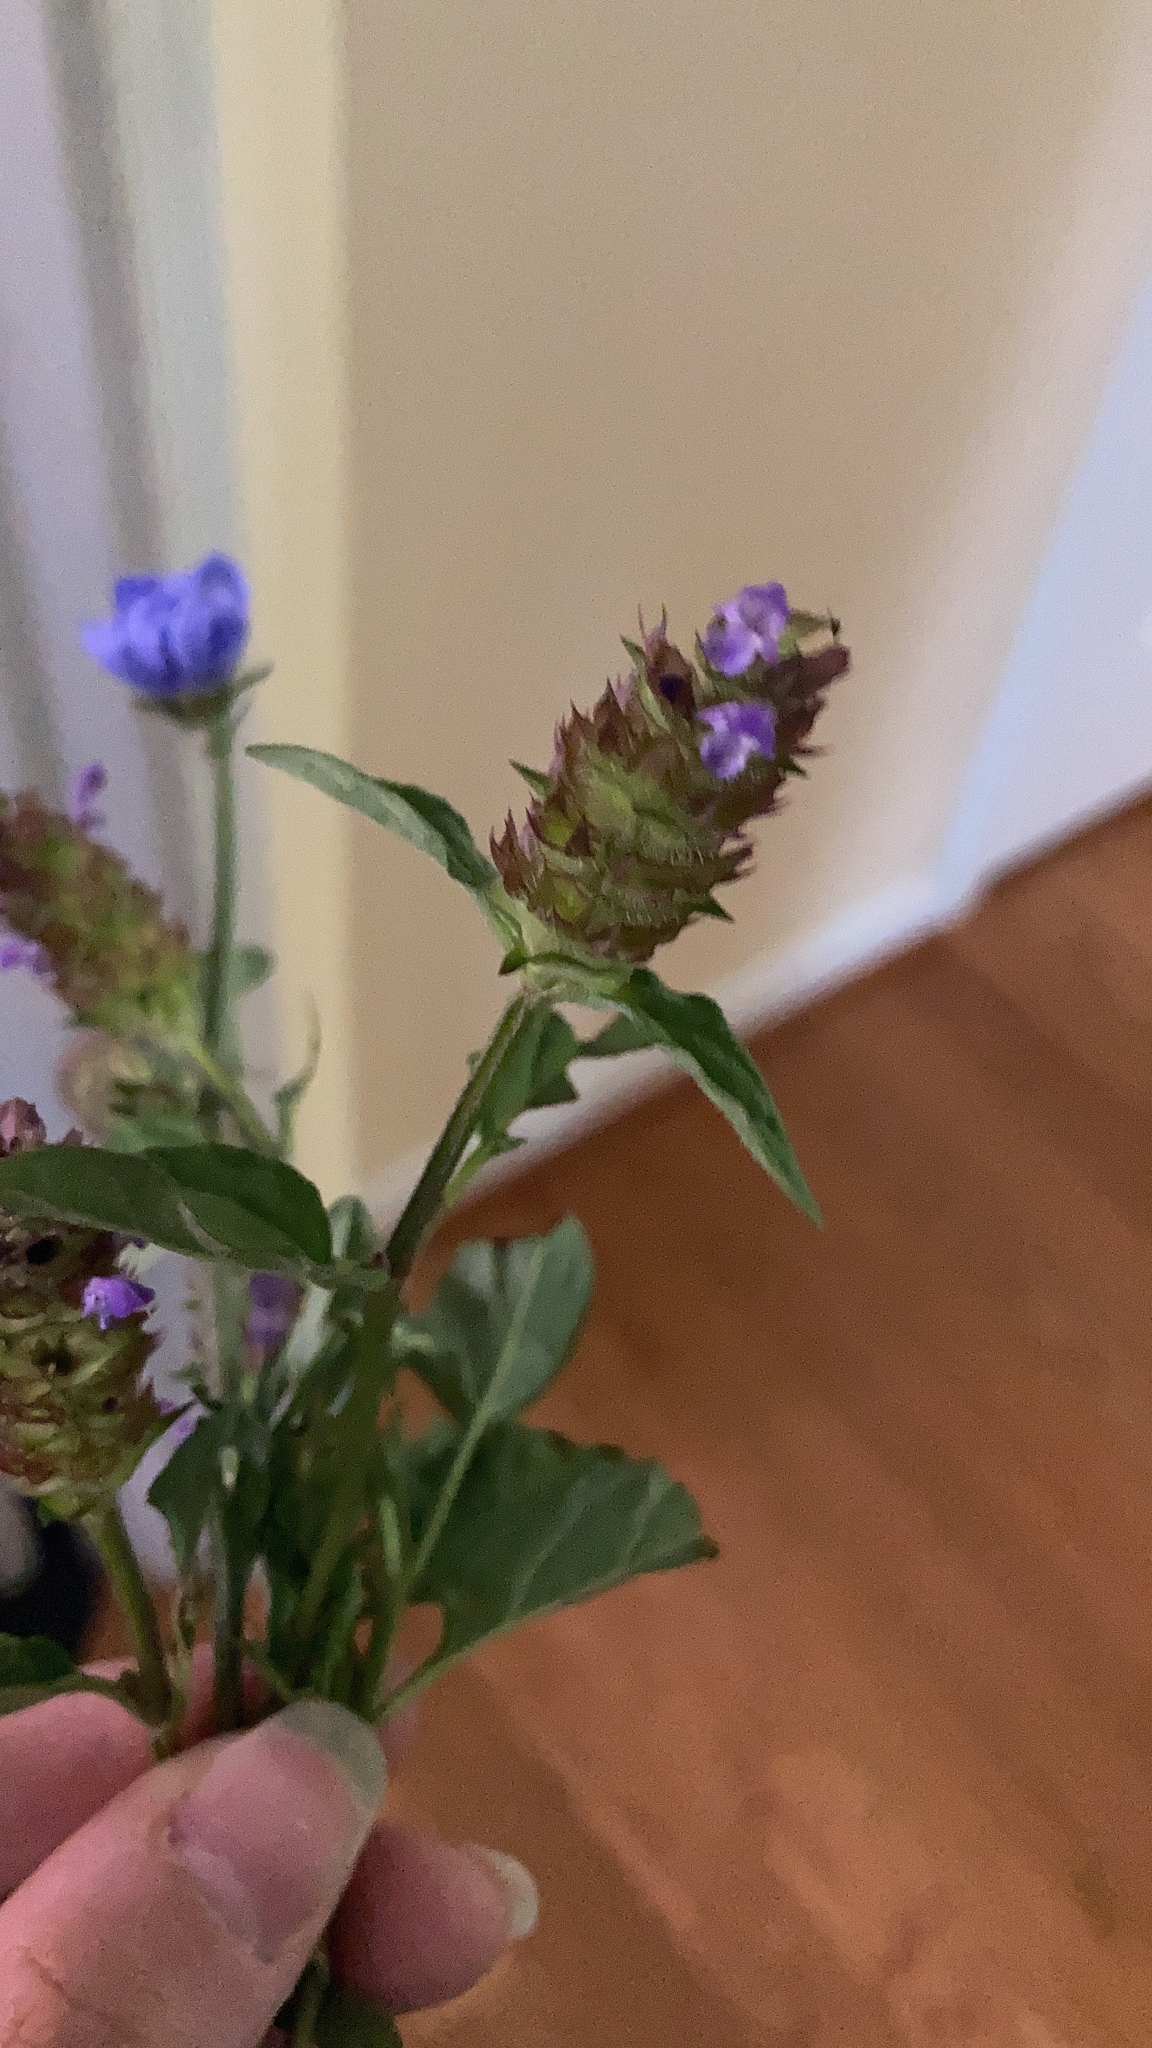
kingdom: Plantae
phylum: Tracheophyta
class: Magnoliopsida
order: Lamiales
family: Lamiaceae
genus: Prunella
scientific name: Prunella vulgaris
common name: Heal-all
